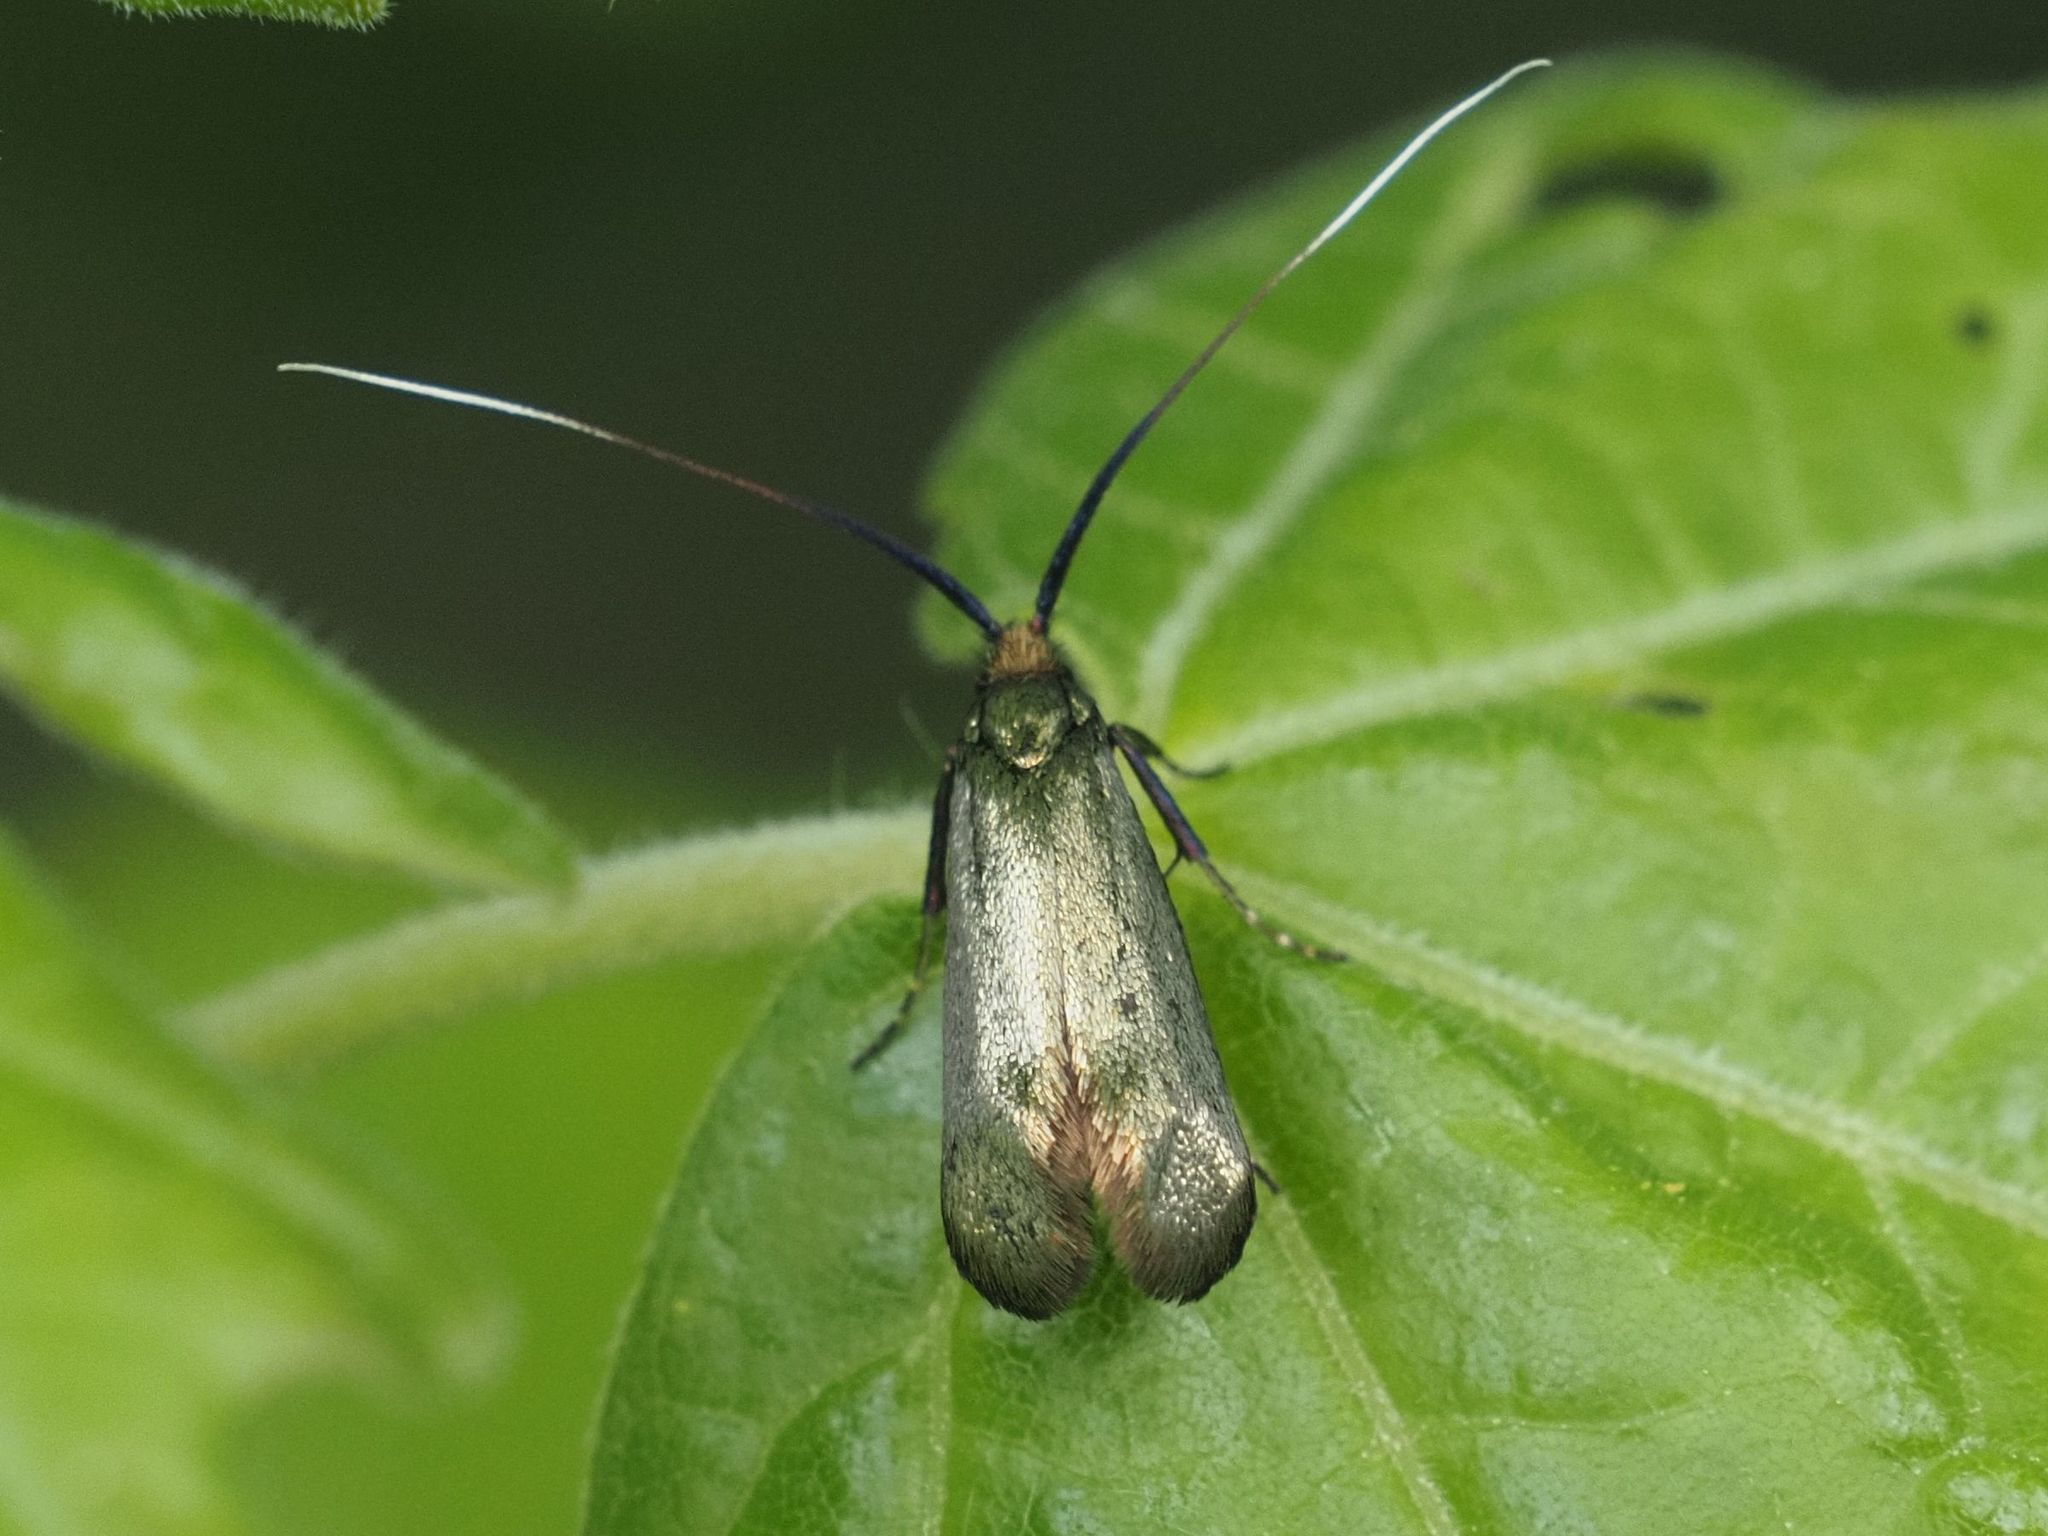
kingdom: Animalia
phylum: Arthropoda
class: Insecta
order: Lepidoptera
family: Adelidae
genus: Adela
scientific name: Adela viridella
